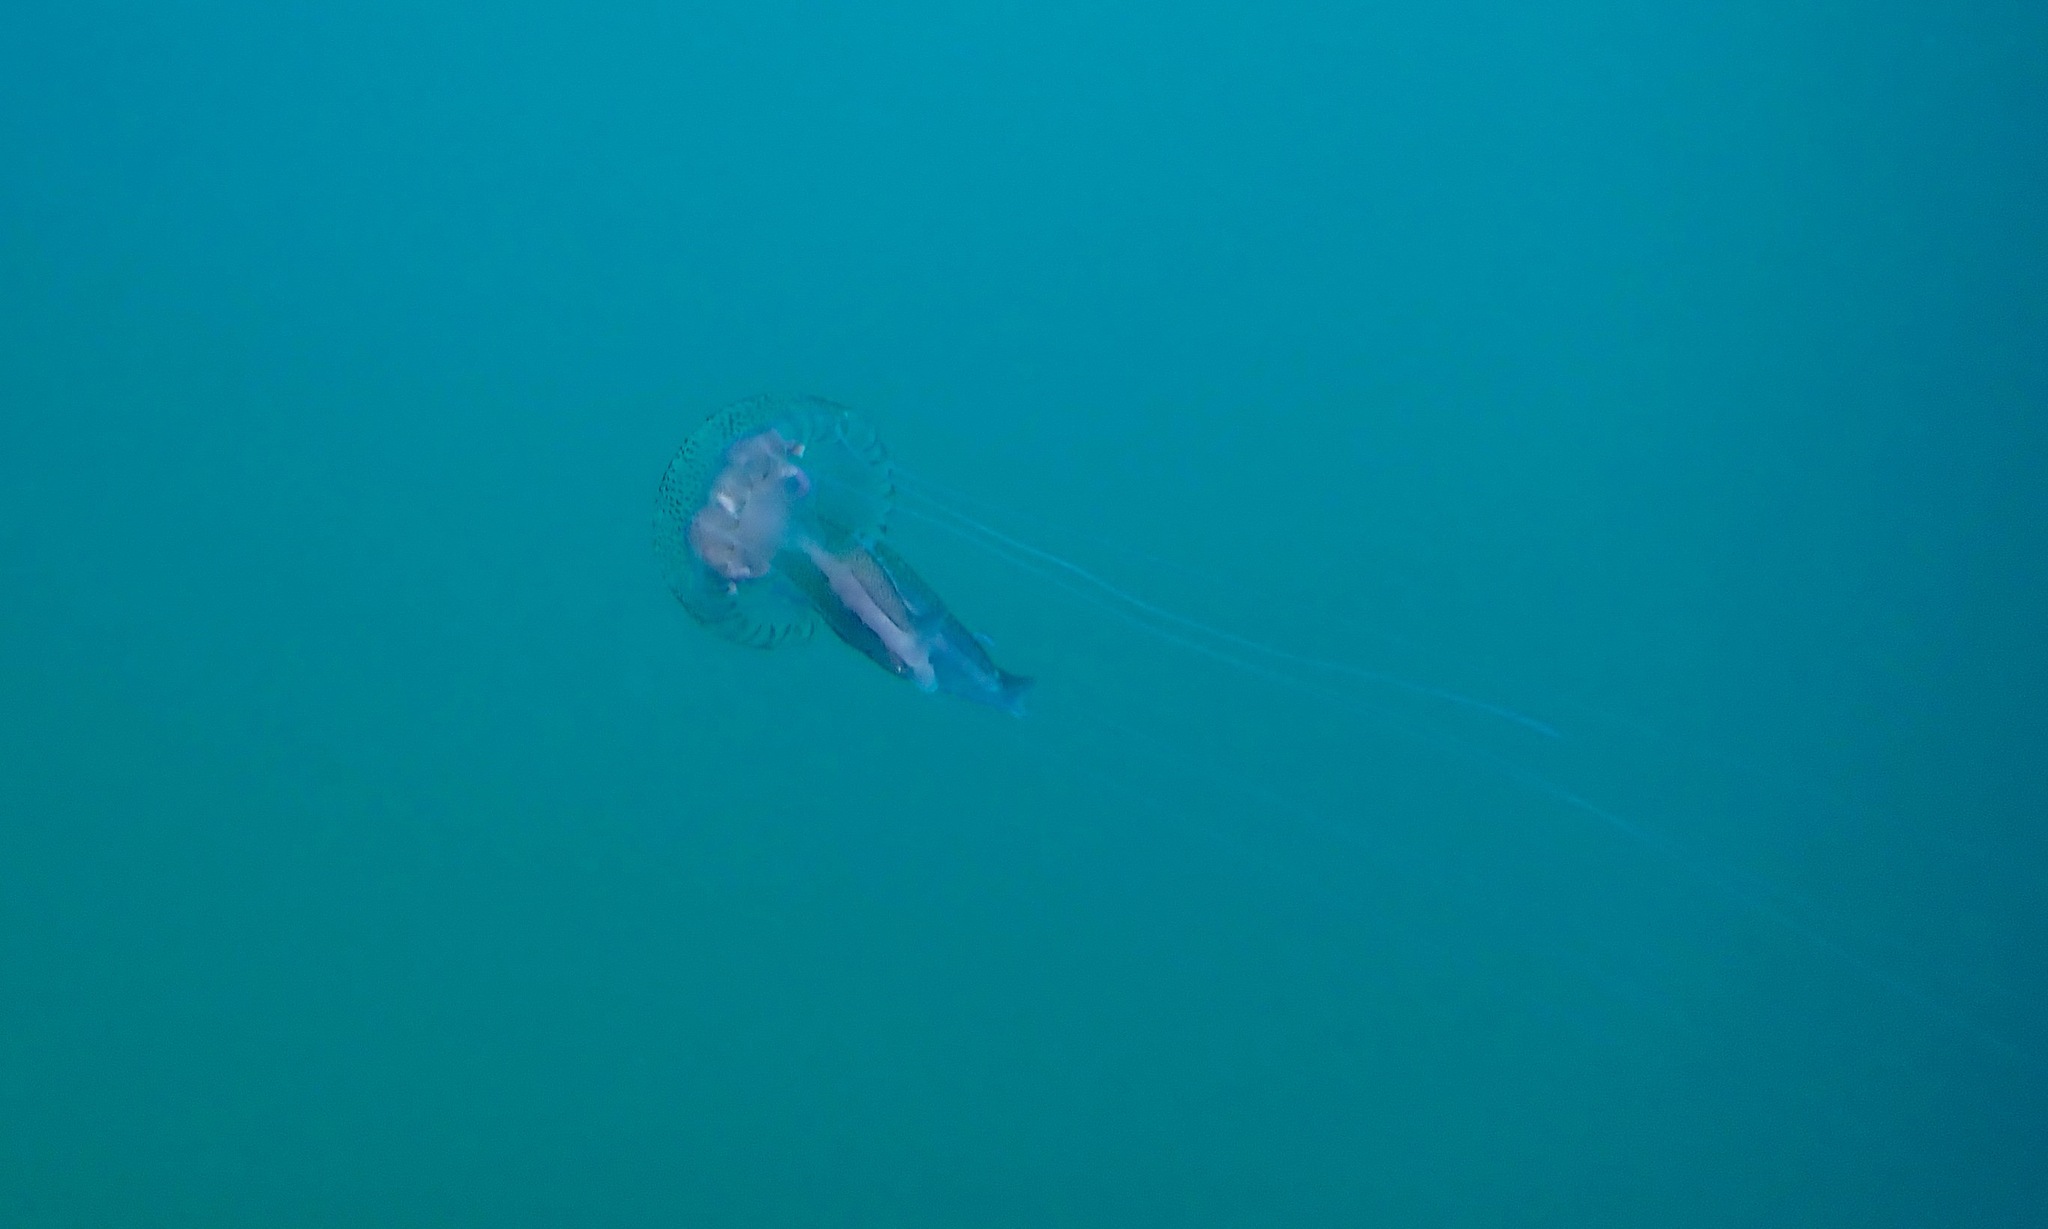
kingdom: Animalia
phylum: Cnidaria
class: Scyphozoa
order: Semaeostomeae
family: Pelagiidae
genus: Pelagia
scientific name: Pelagia noctiluca
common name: Mauve stinger
